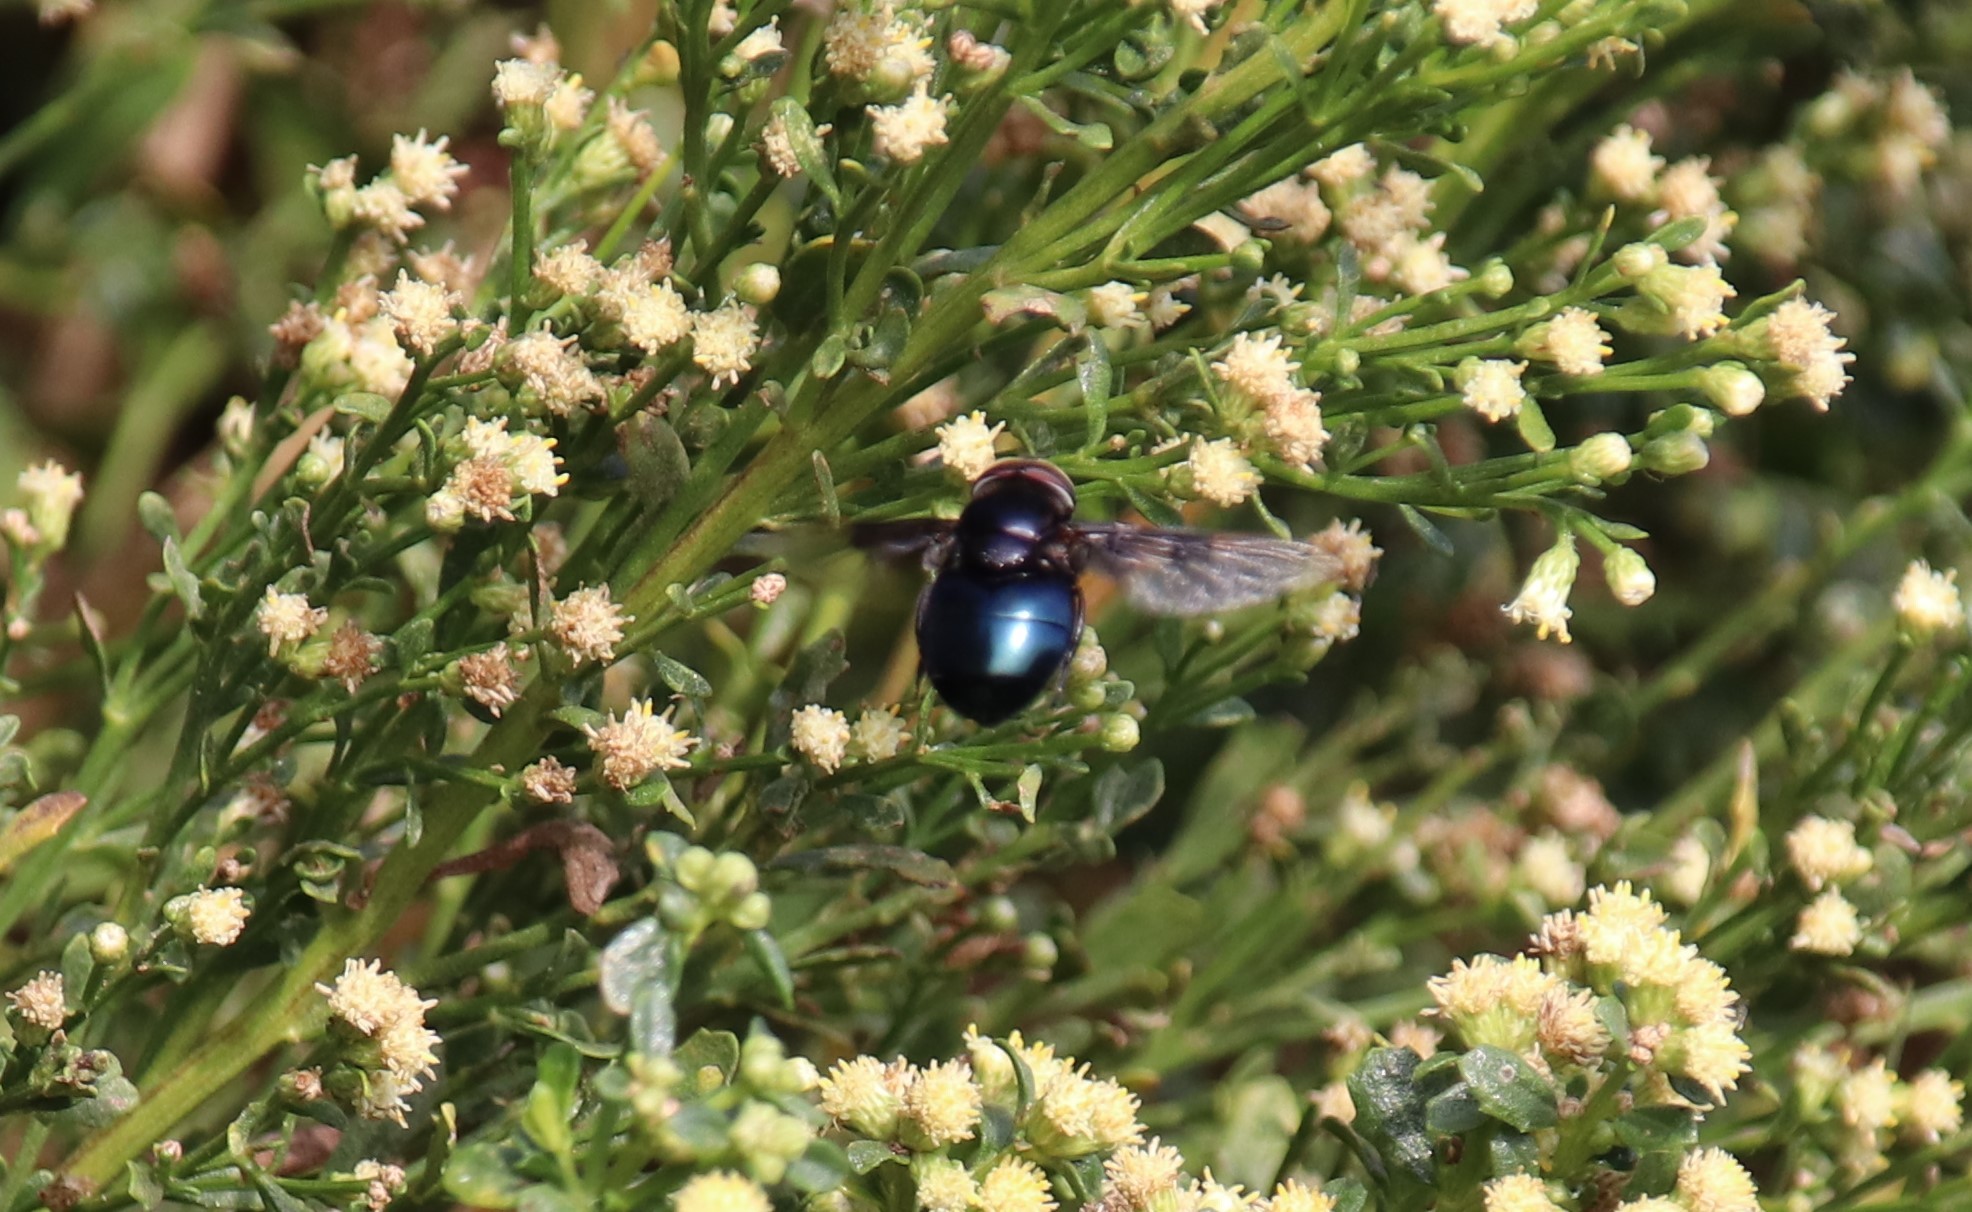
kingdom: Animalia
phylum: Arthropoda
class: Insecta
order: Diptera
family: Syrphidae
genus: Copestylum
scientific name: Copestylum mexicanum
